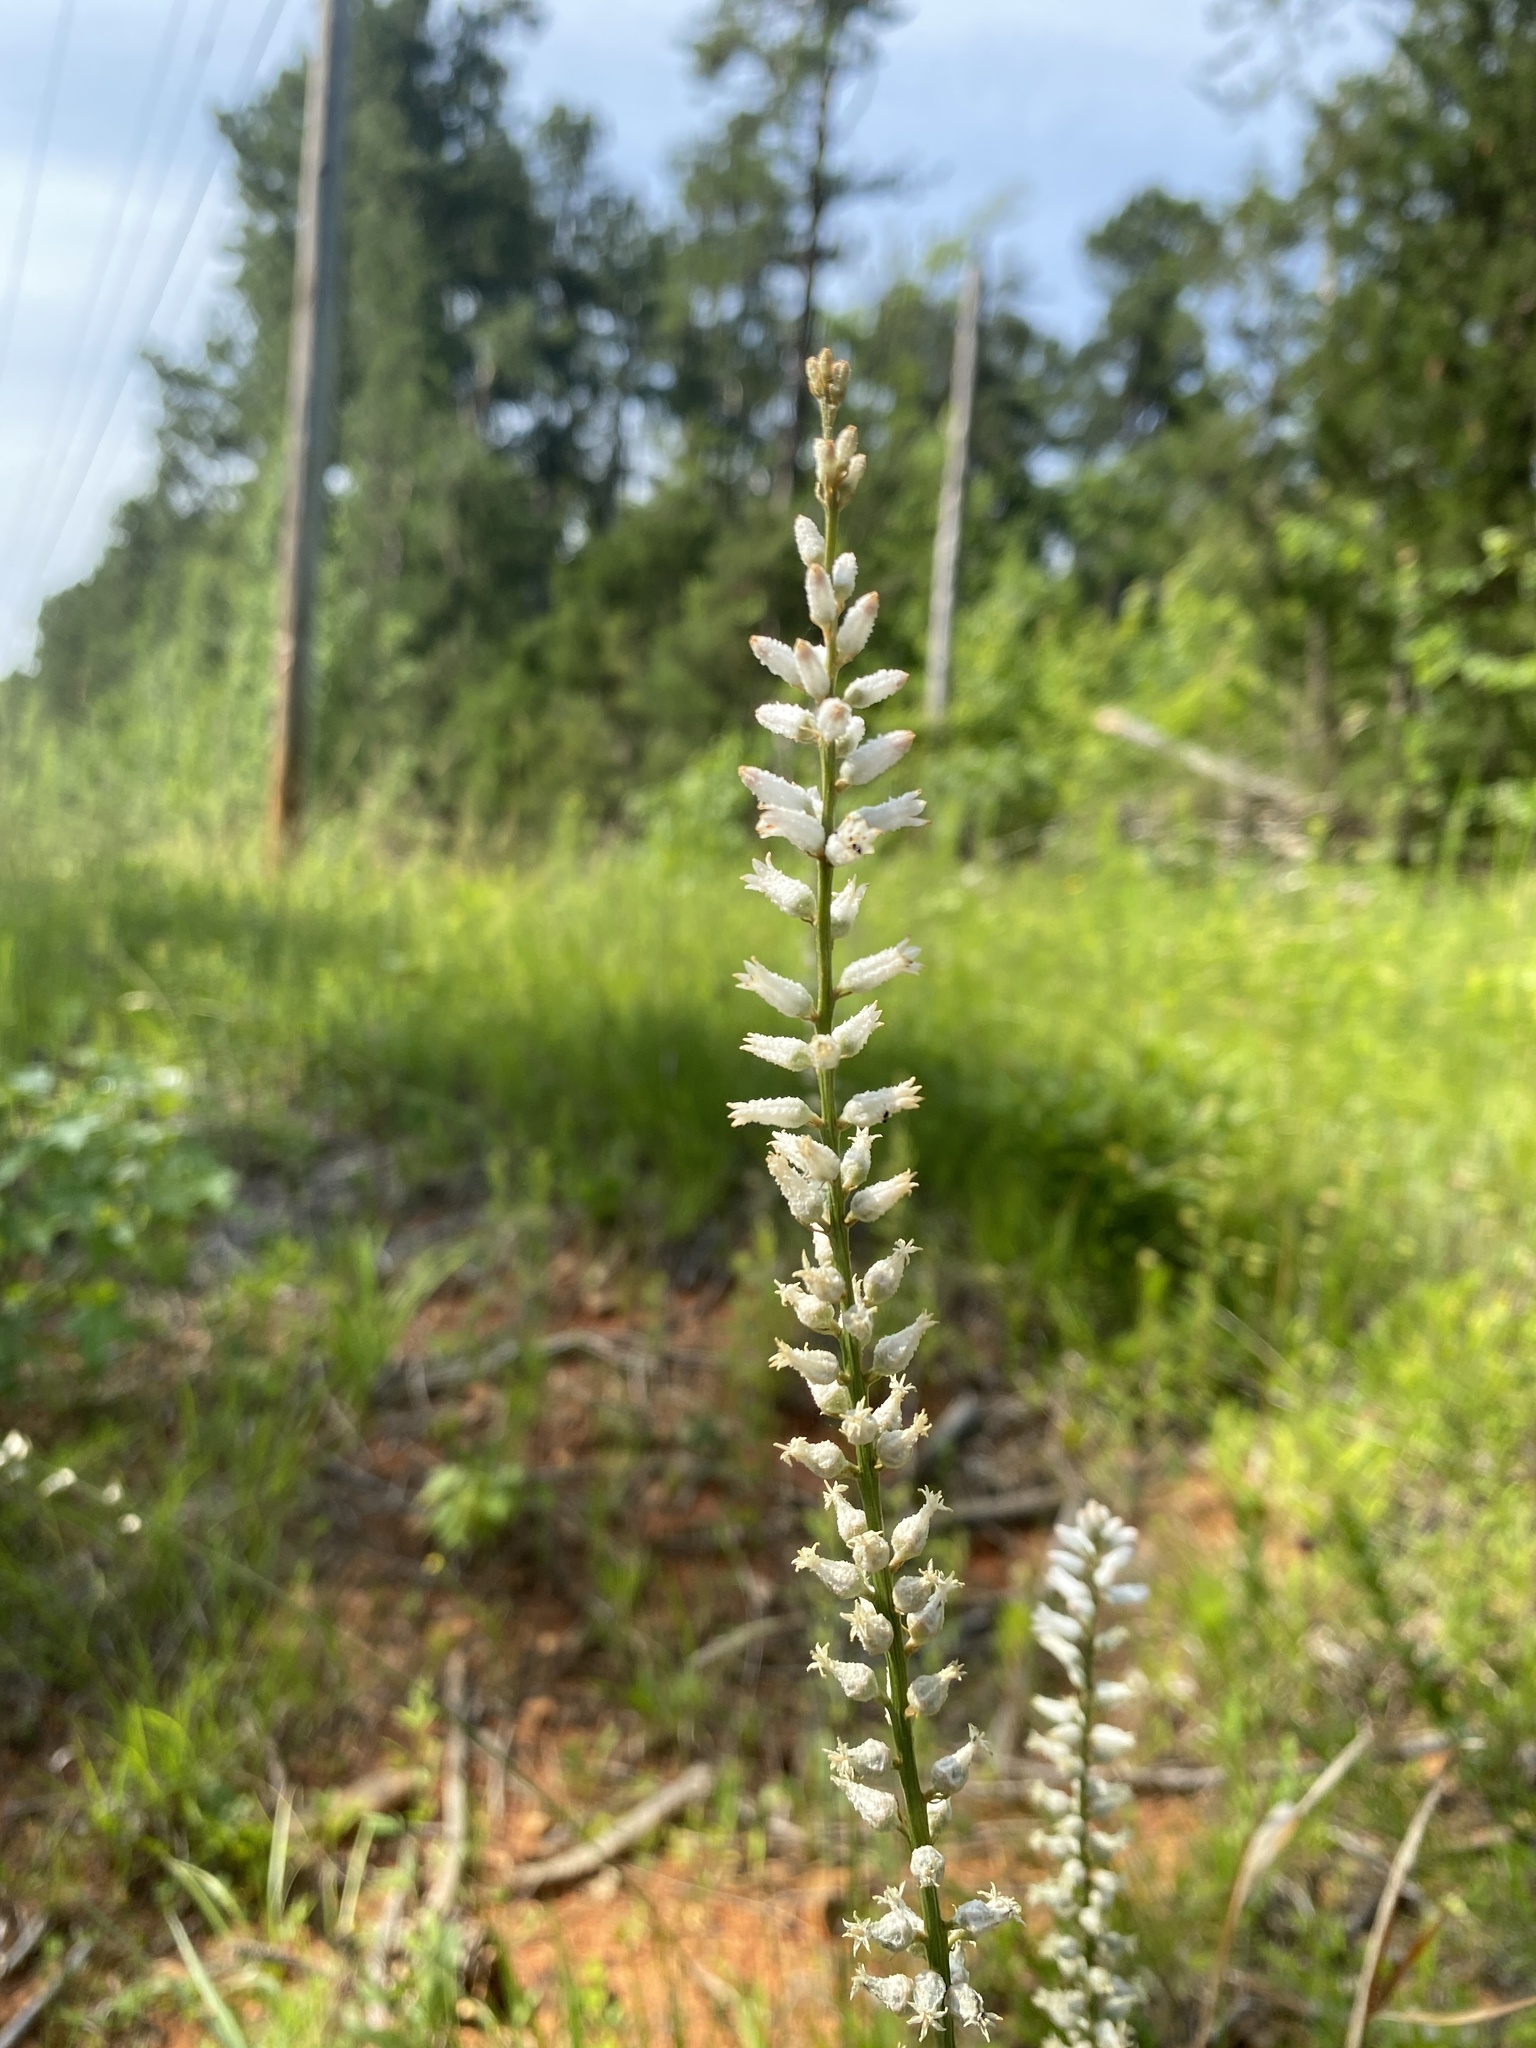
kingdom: Plantae
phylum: Tracheophyta
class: Liliopsida
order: Dioscoreales
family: Nartheciaceae
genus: Aletris
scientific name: Aletris farinosa
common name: Colicroot
